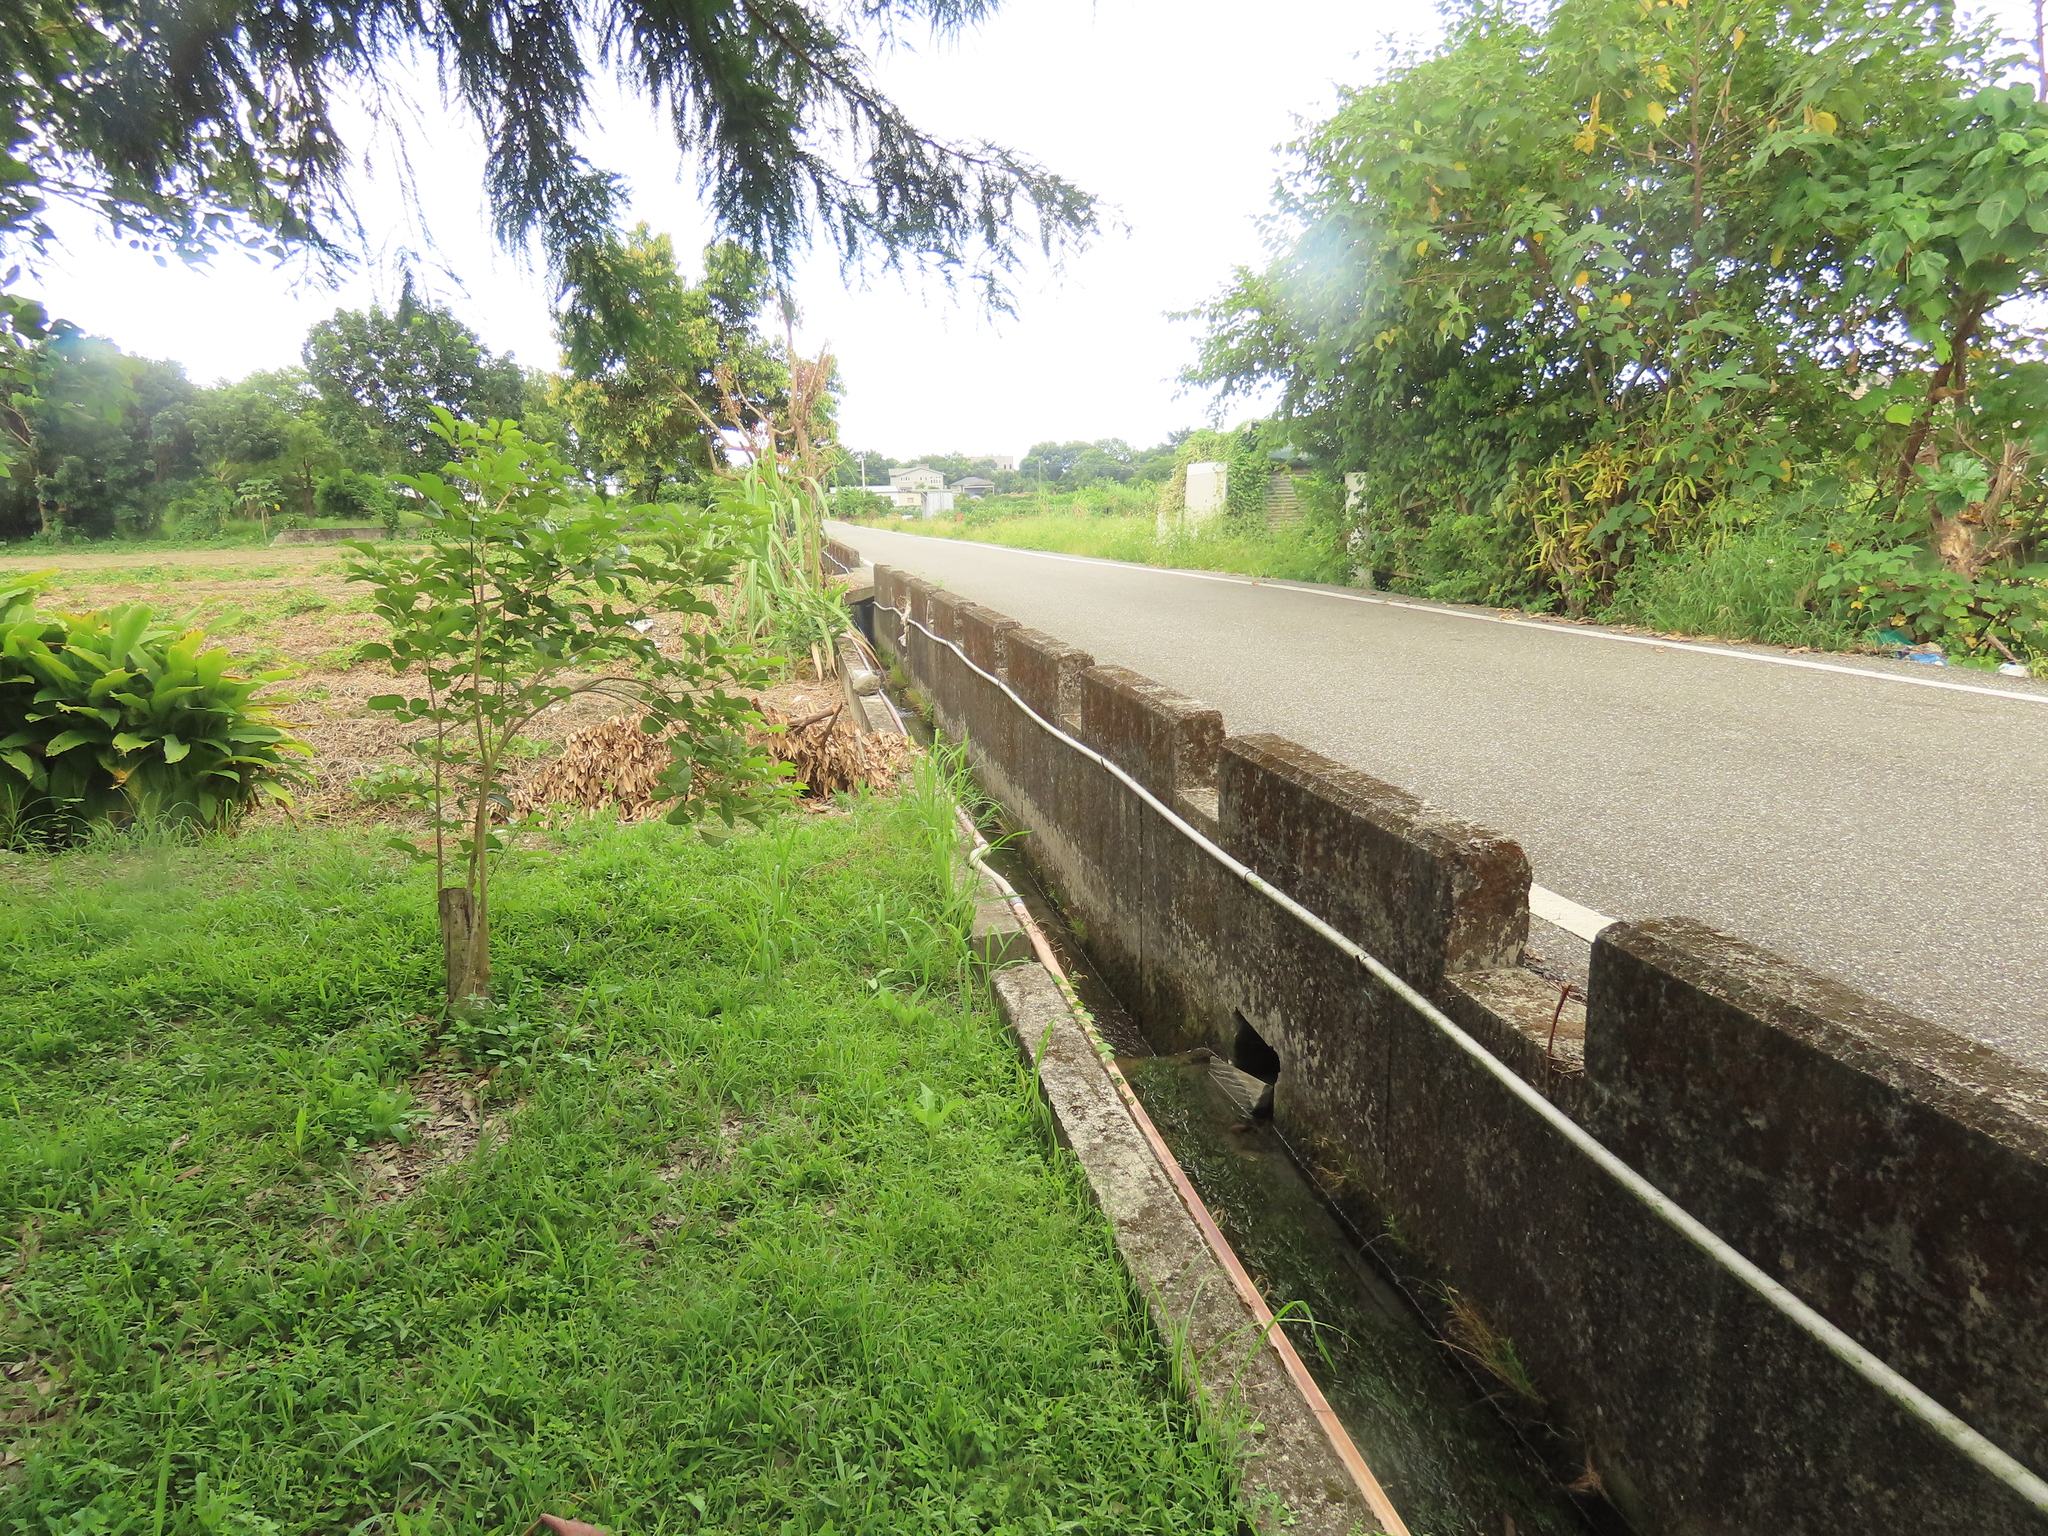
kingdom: Plantae
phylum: Tracheophyta
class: Liliopsida
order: Alismatales
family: Potamogetonaceae
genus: Potamogeton
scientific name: Potamogeton crispus
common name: Curled pondweed
